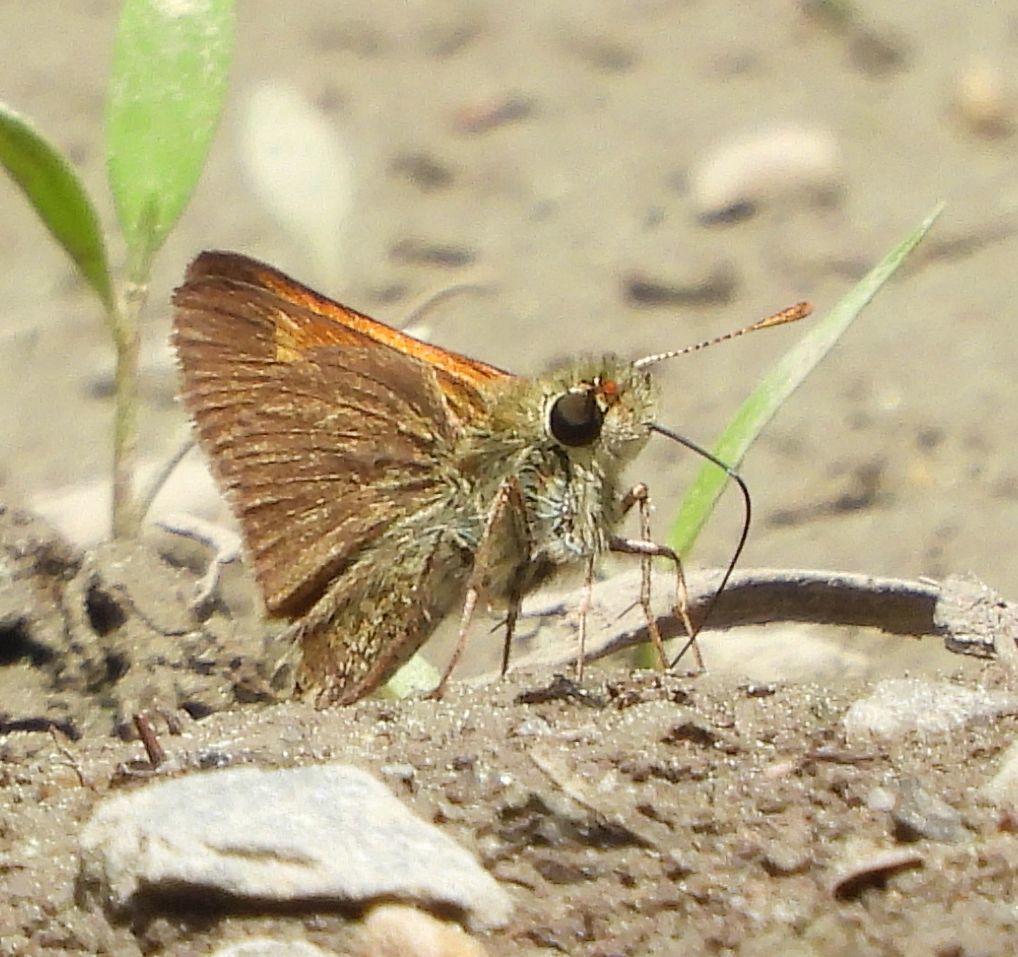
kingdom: Animalia
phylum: Arthropoda
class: Insecta
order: Lepidoptera
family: Hesperiidae
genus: Polites
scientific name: Polites themistocles
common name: Tawny-edged skipper
